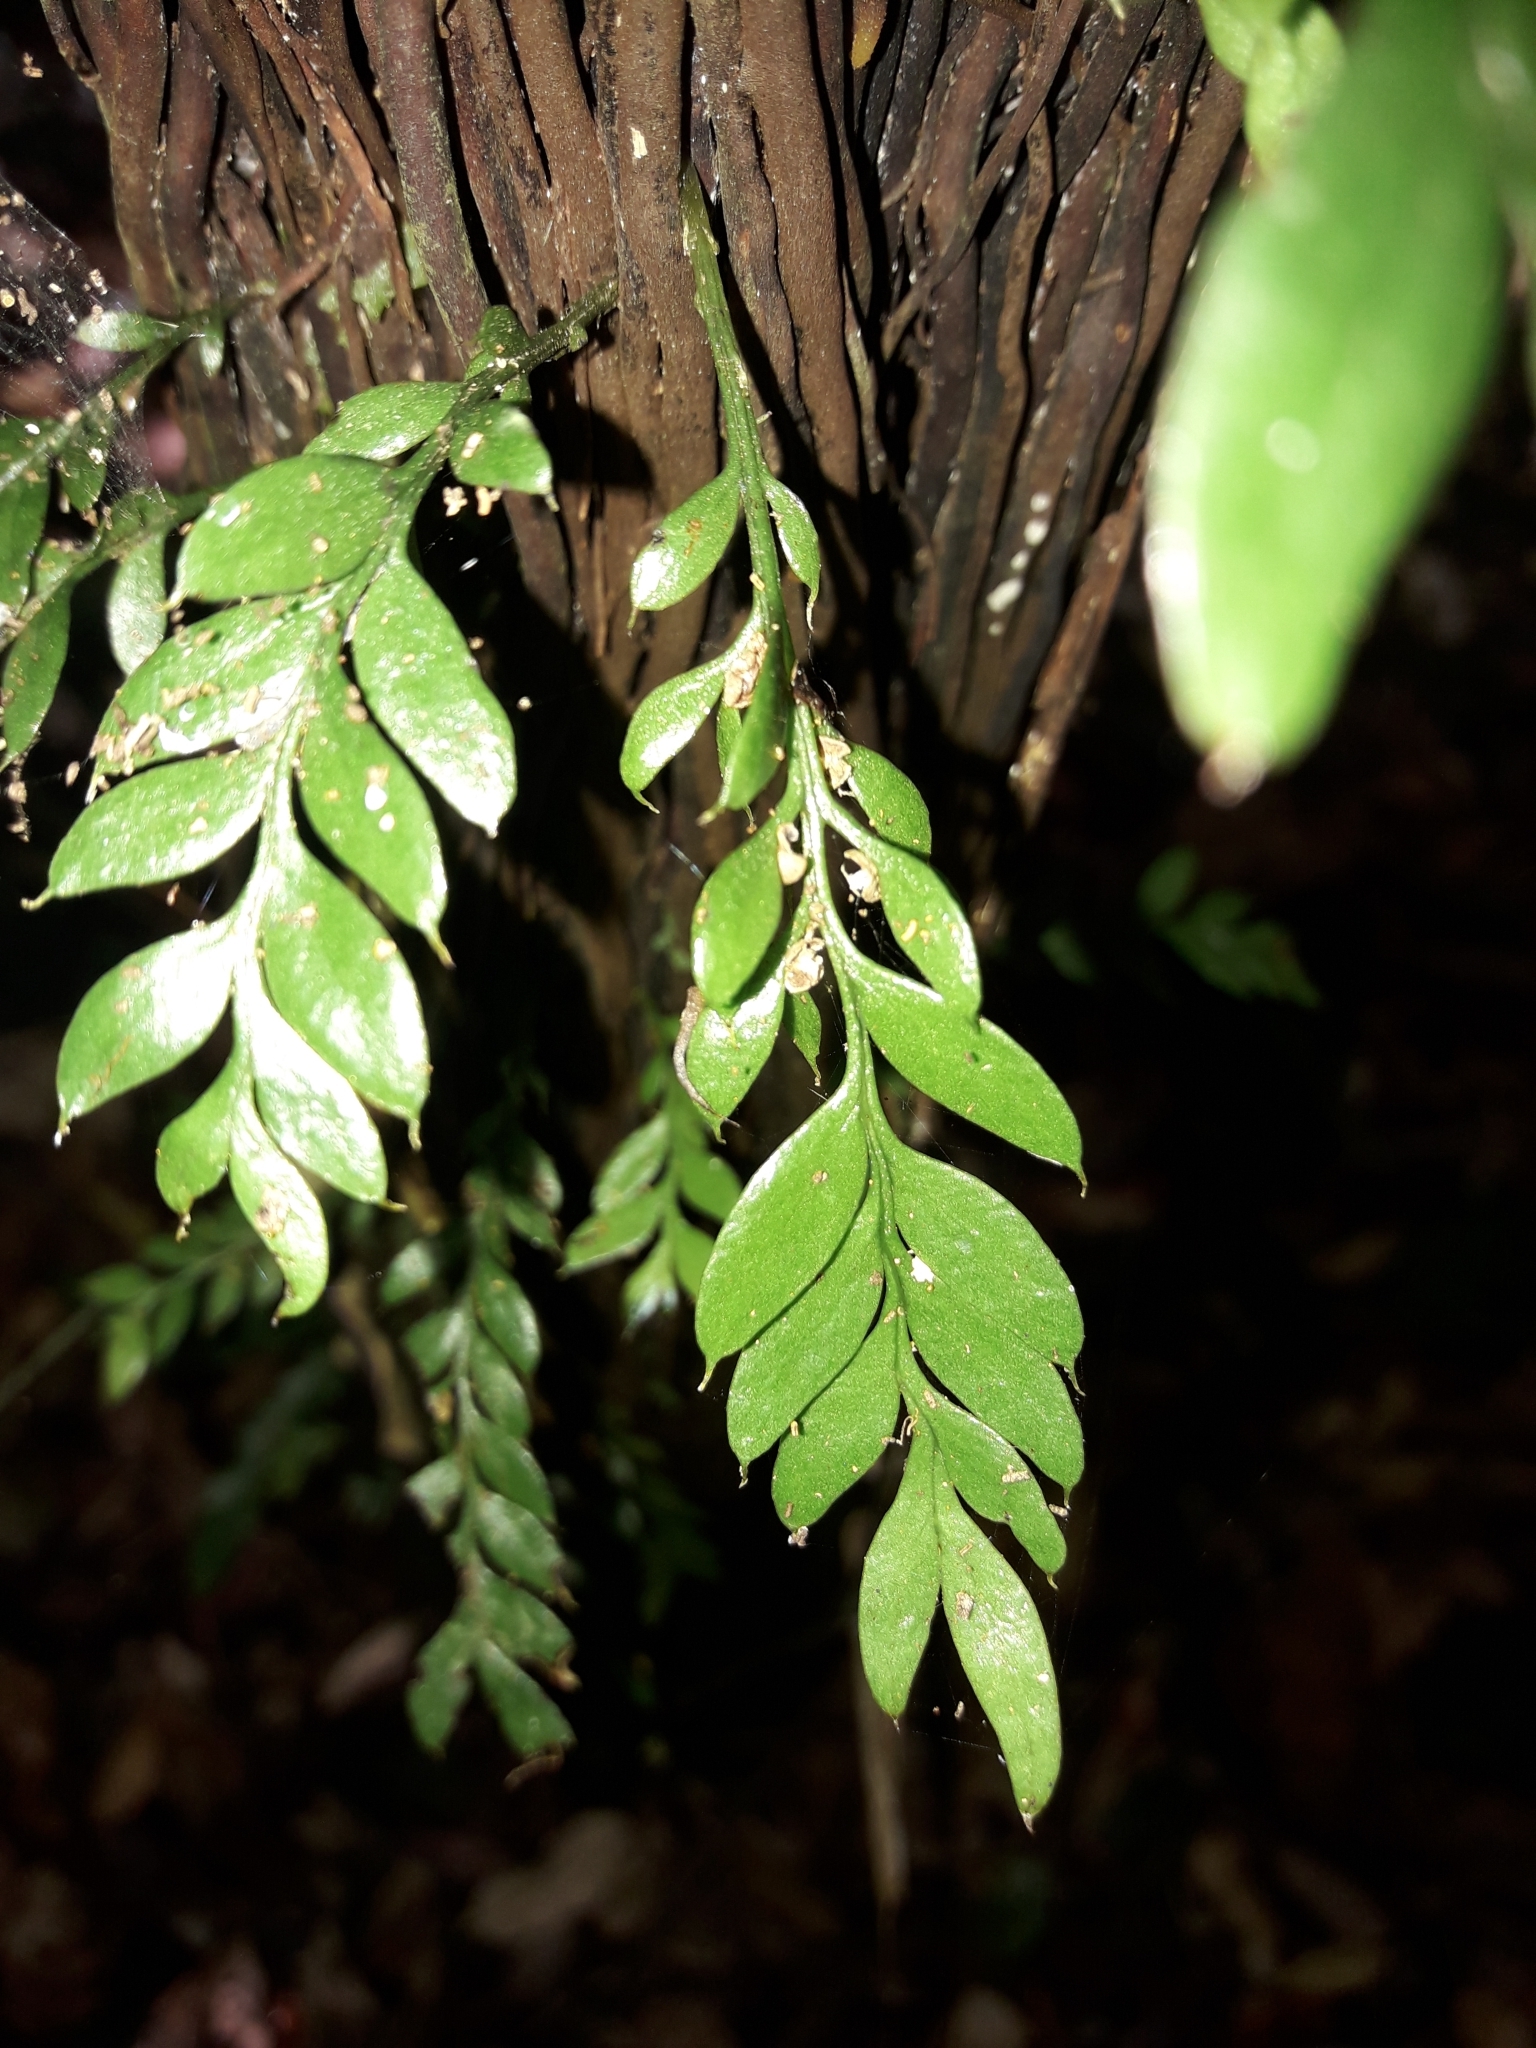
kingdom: Plantae
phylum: Tracheophyta
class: Polypodiopsida
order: Psilotales
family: Psilotaceae
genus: Tmesipteris
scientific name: Tmesipteris lanceolata
